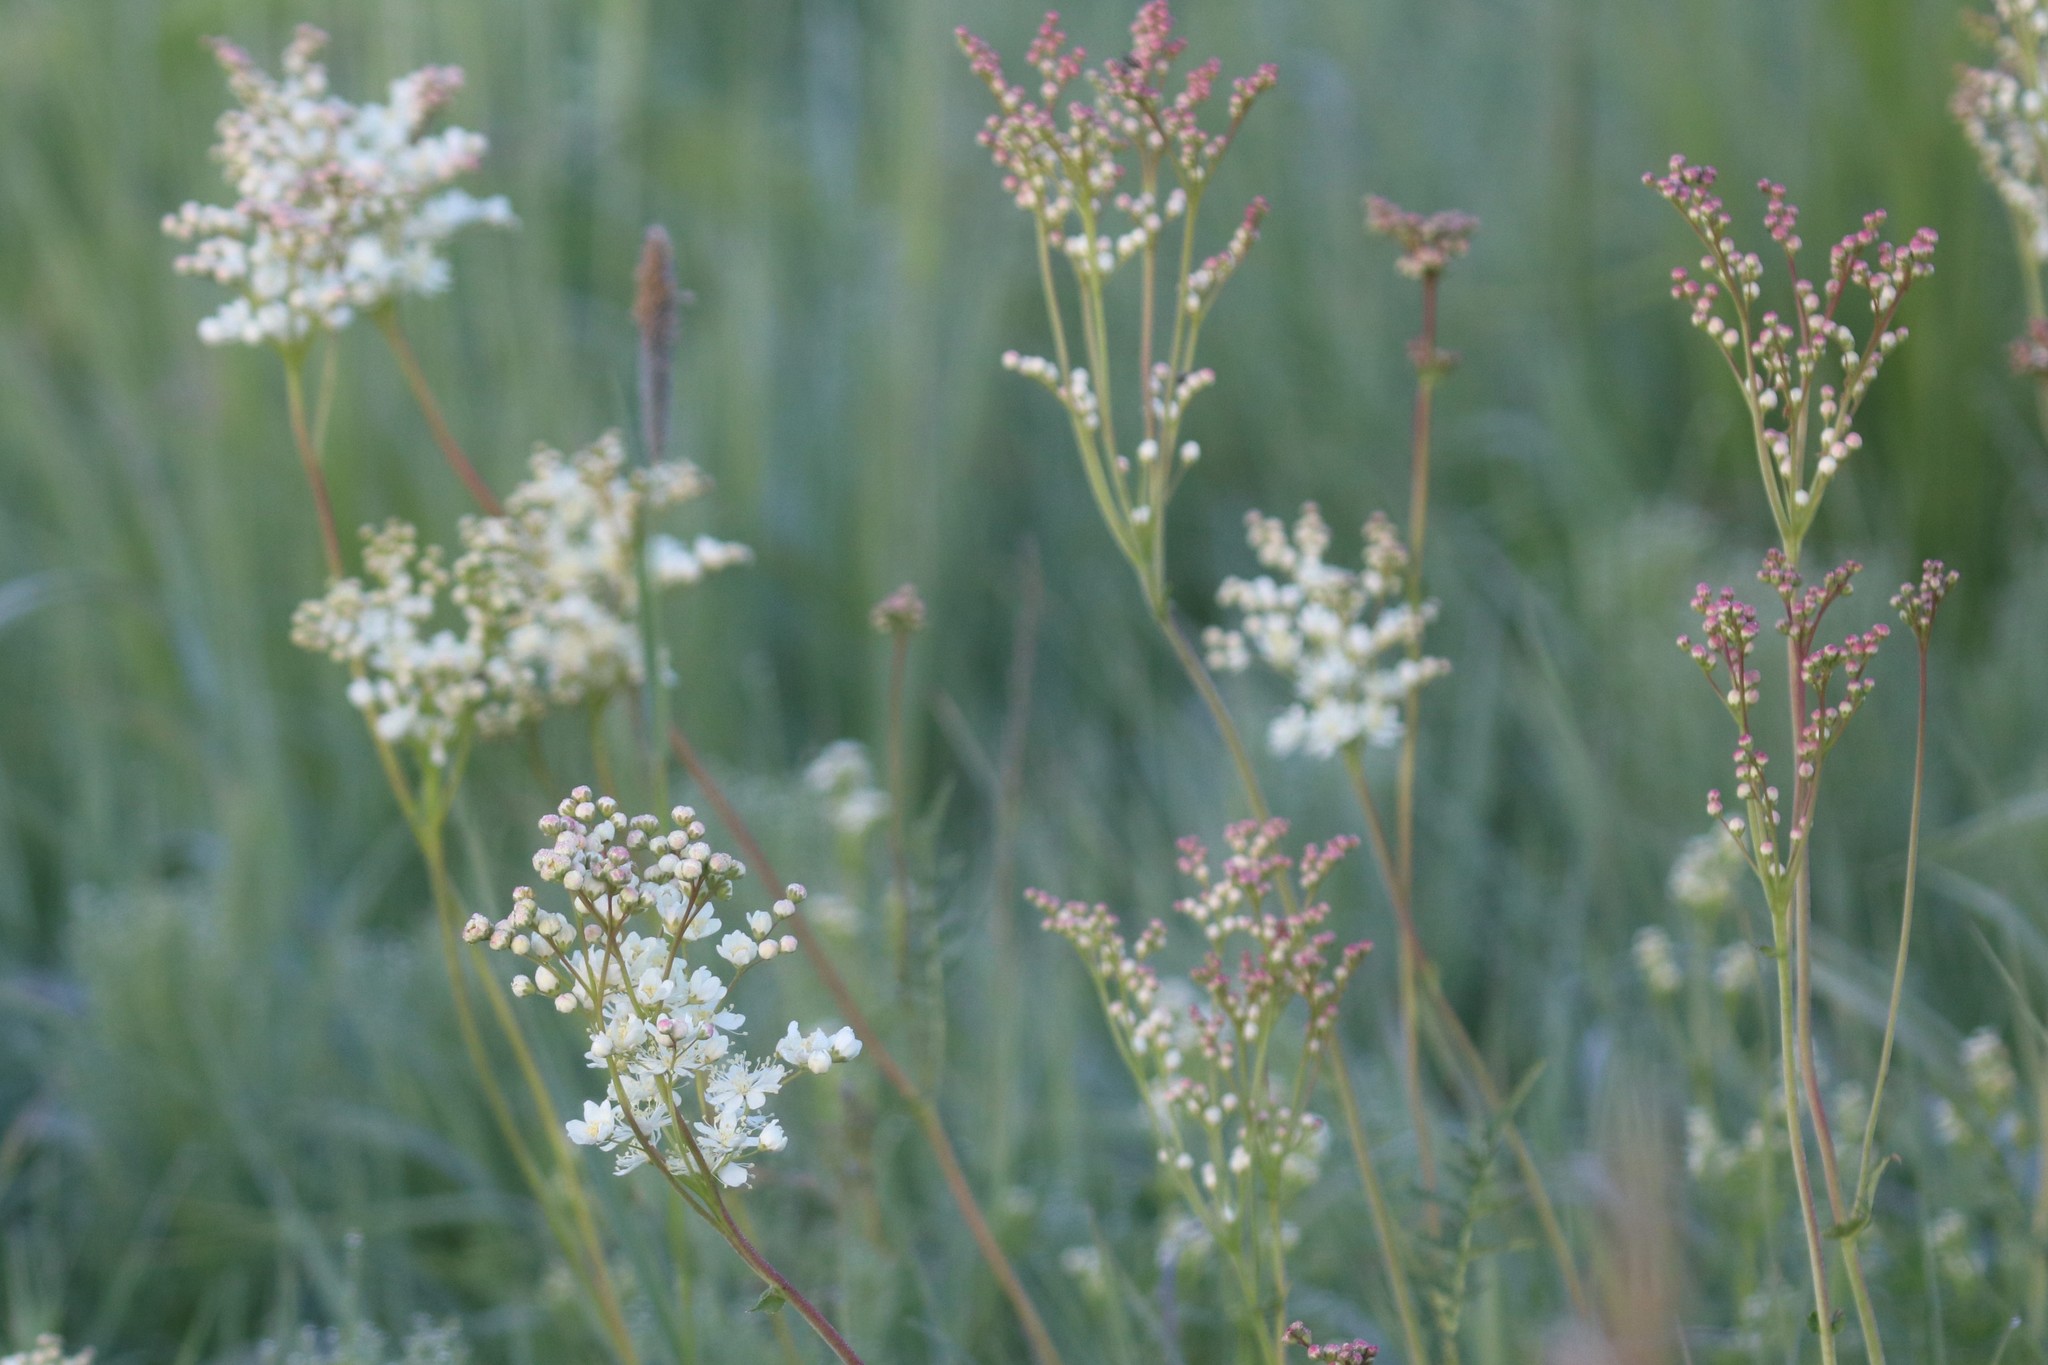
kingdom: Plantae
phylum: Tracheophyta
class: Magnoliopsida
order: Rosales
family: Rosaceae
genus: Filipendula
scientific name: Filipendula vulgaris
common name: Dropwort
